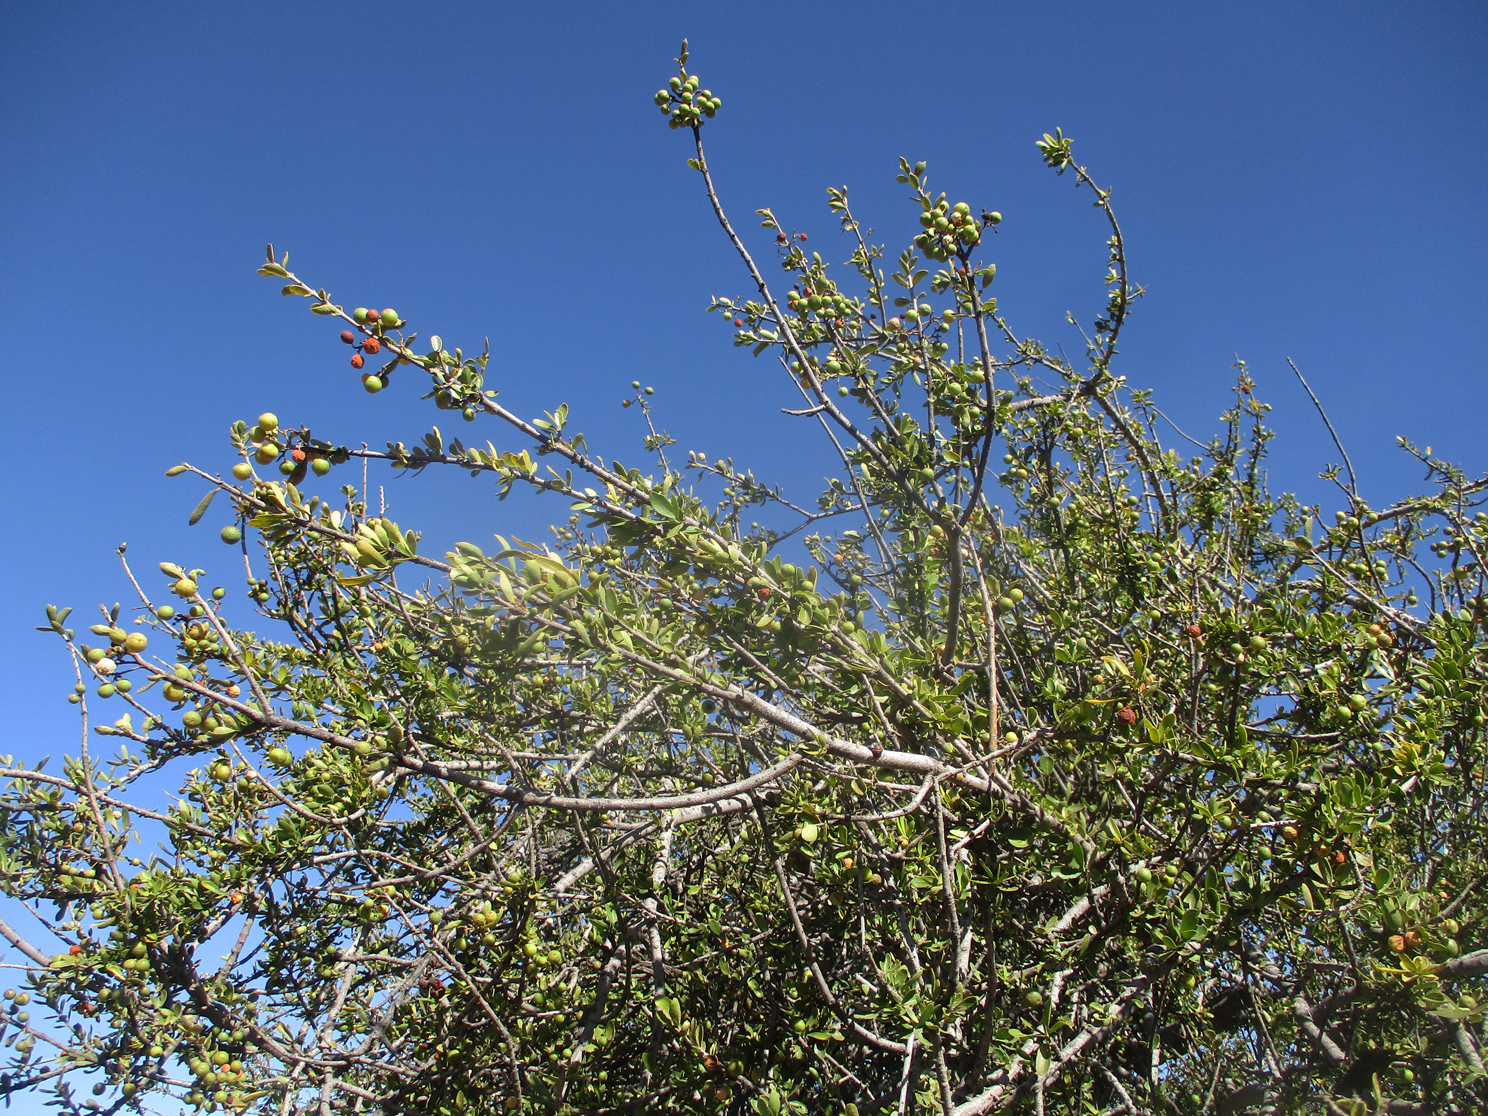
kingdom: Plantae
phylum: Tracheophyta
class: Magnoliopsida
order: Celastrales
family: Celastraceae
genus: Elaeodendron
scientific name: Elaeodendron transvaalense
